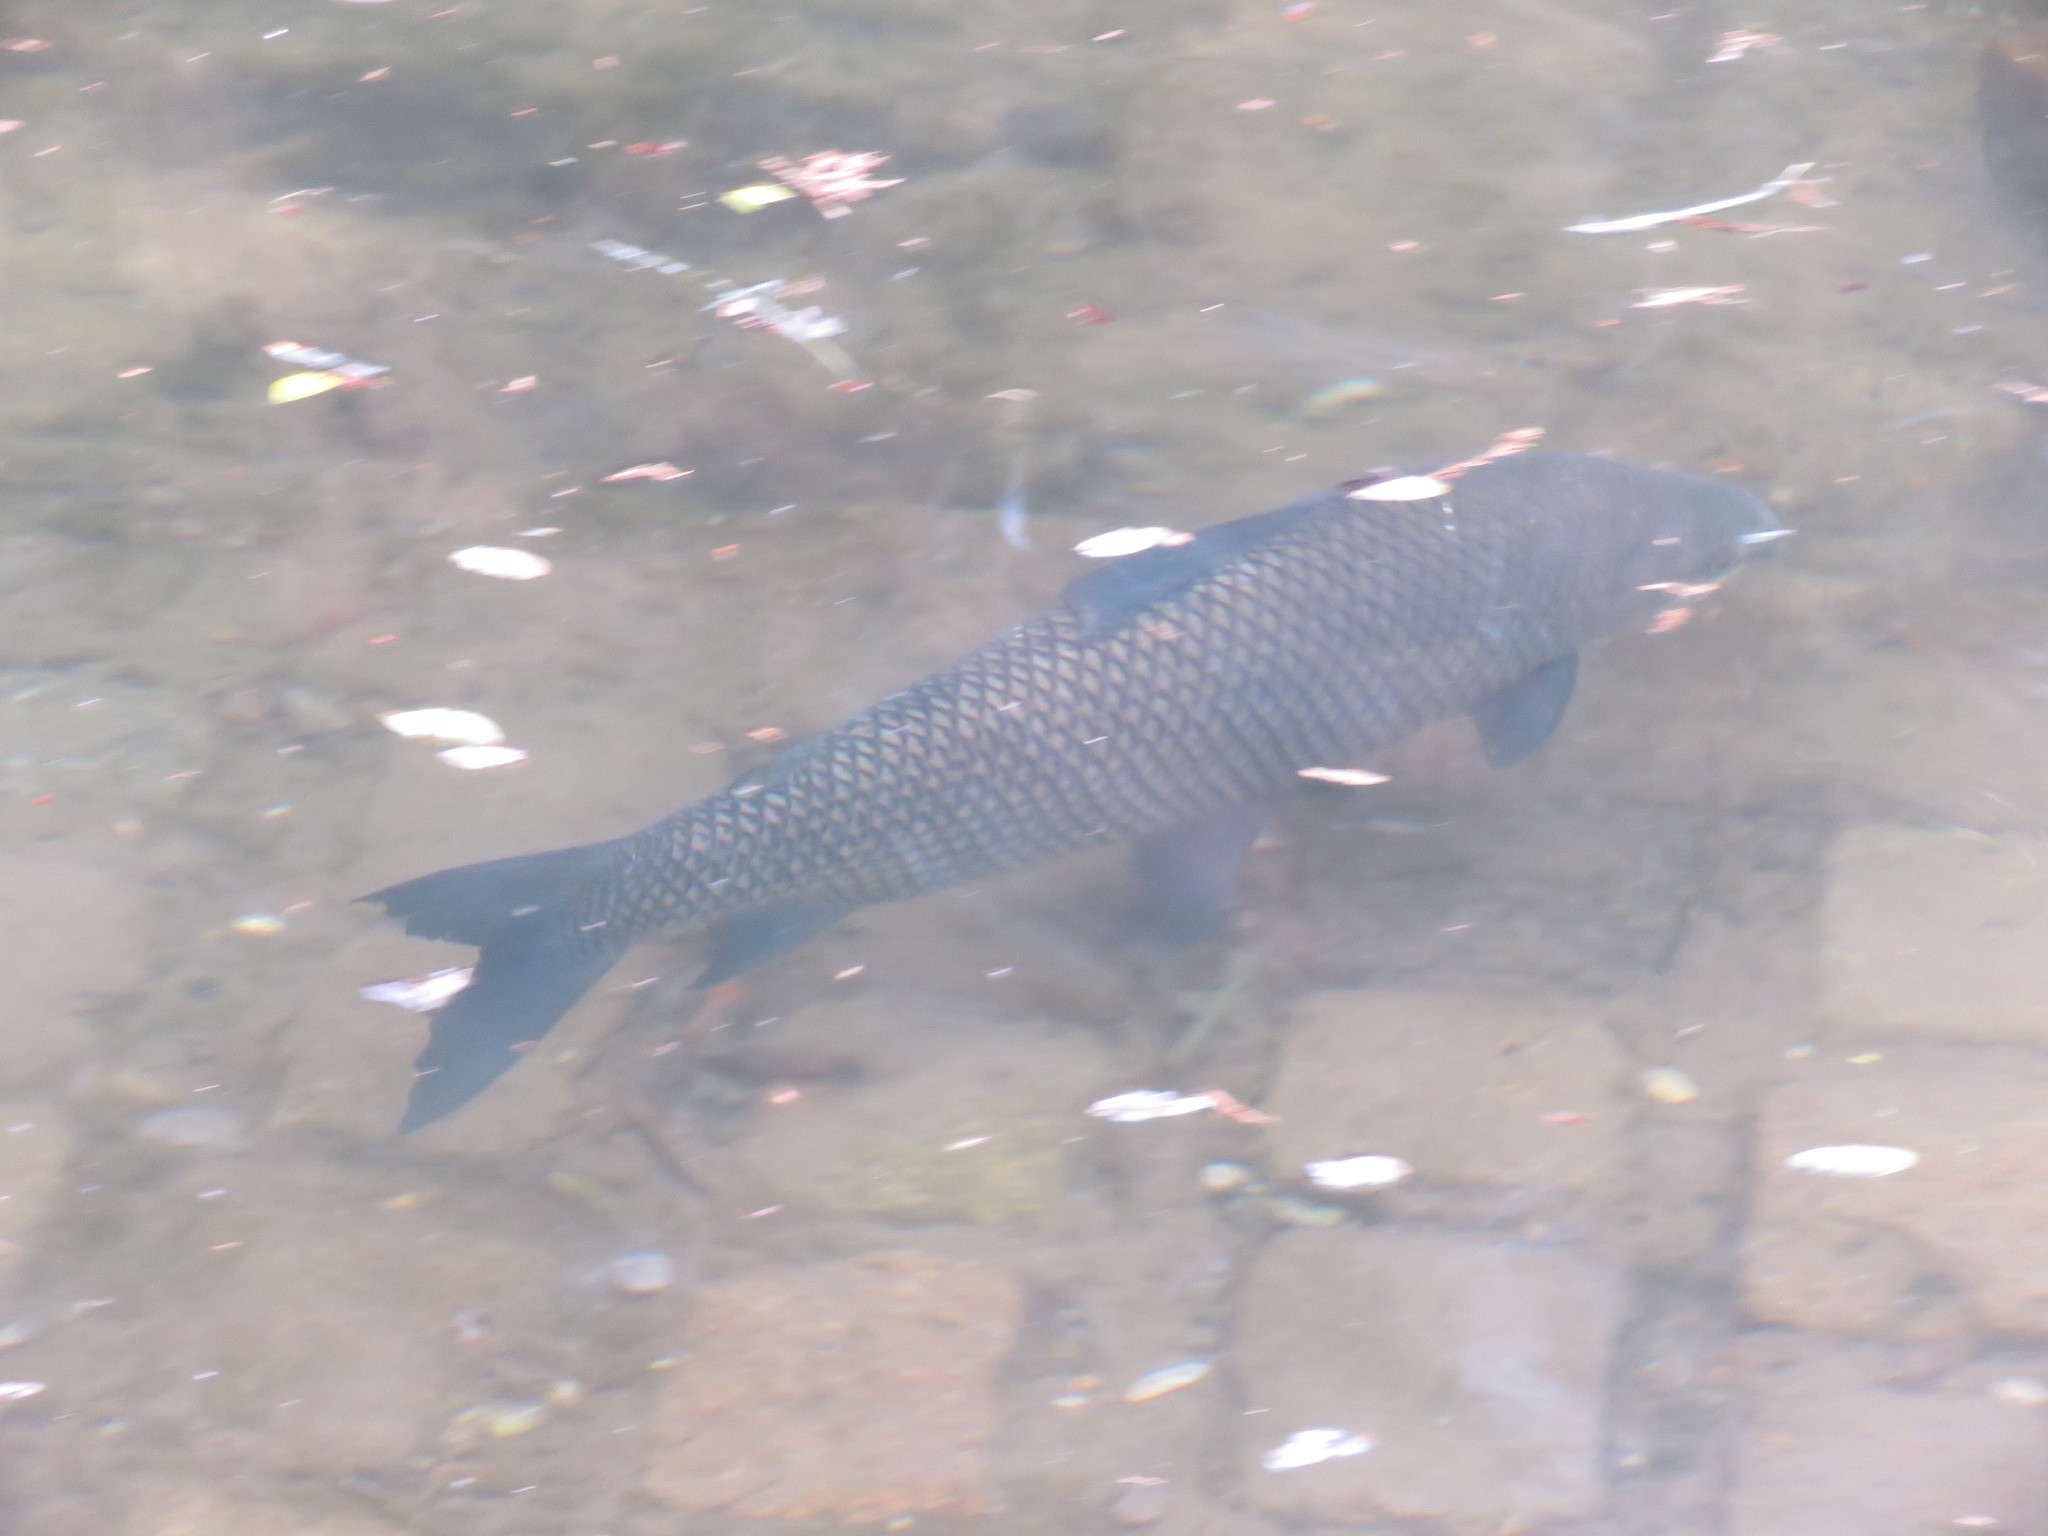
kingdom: Animalia
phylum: Chordata
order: Characiformes
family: Prochilodontidae
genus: Prochilodus
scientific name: Prochilodus lineatus
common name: Curimbata
